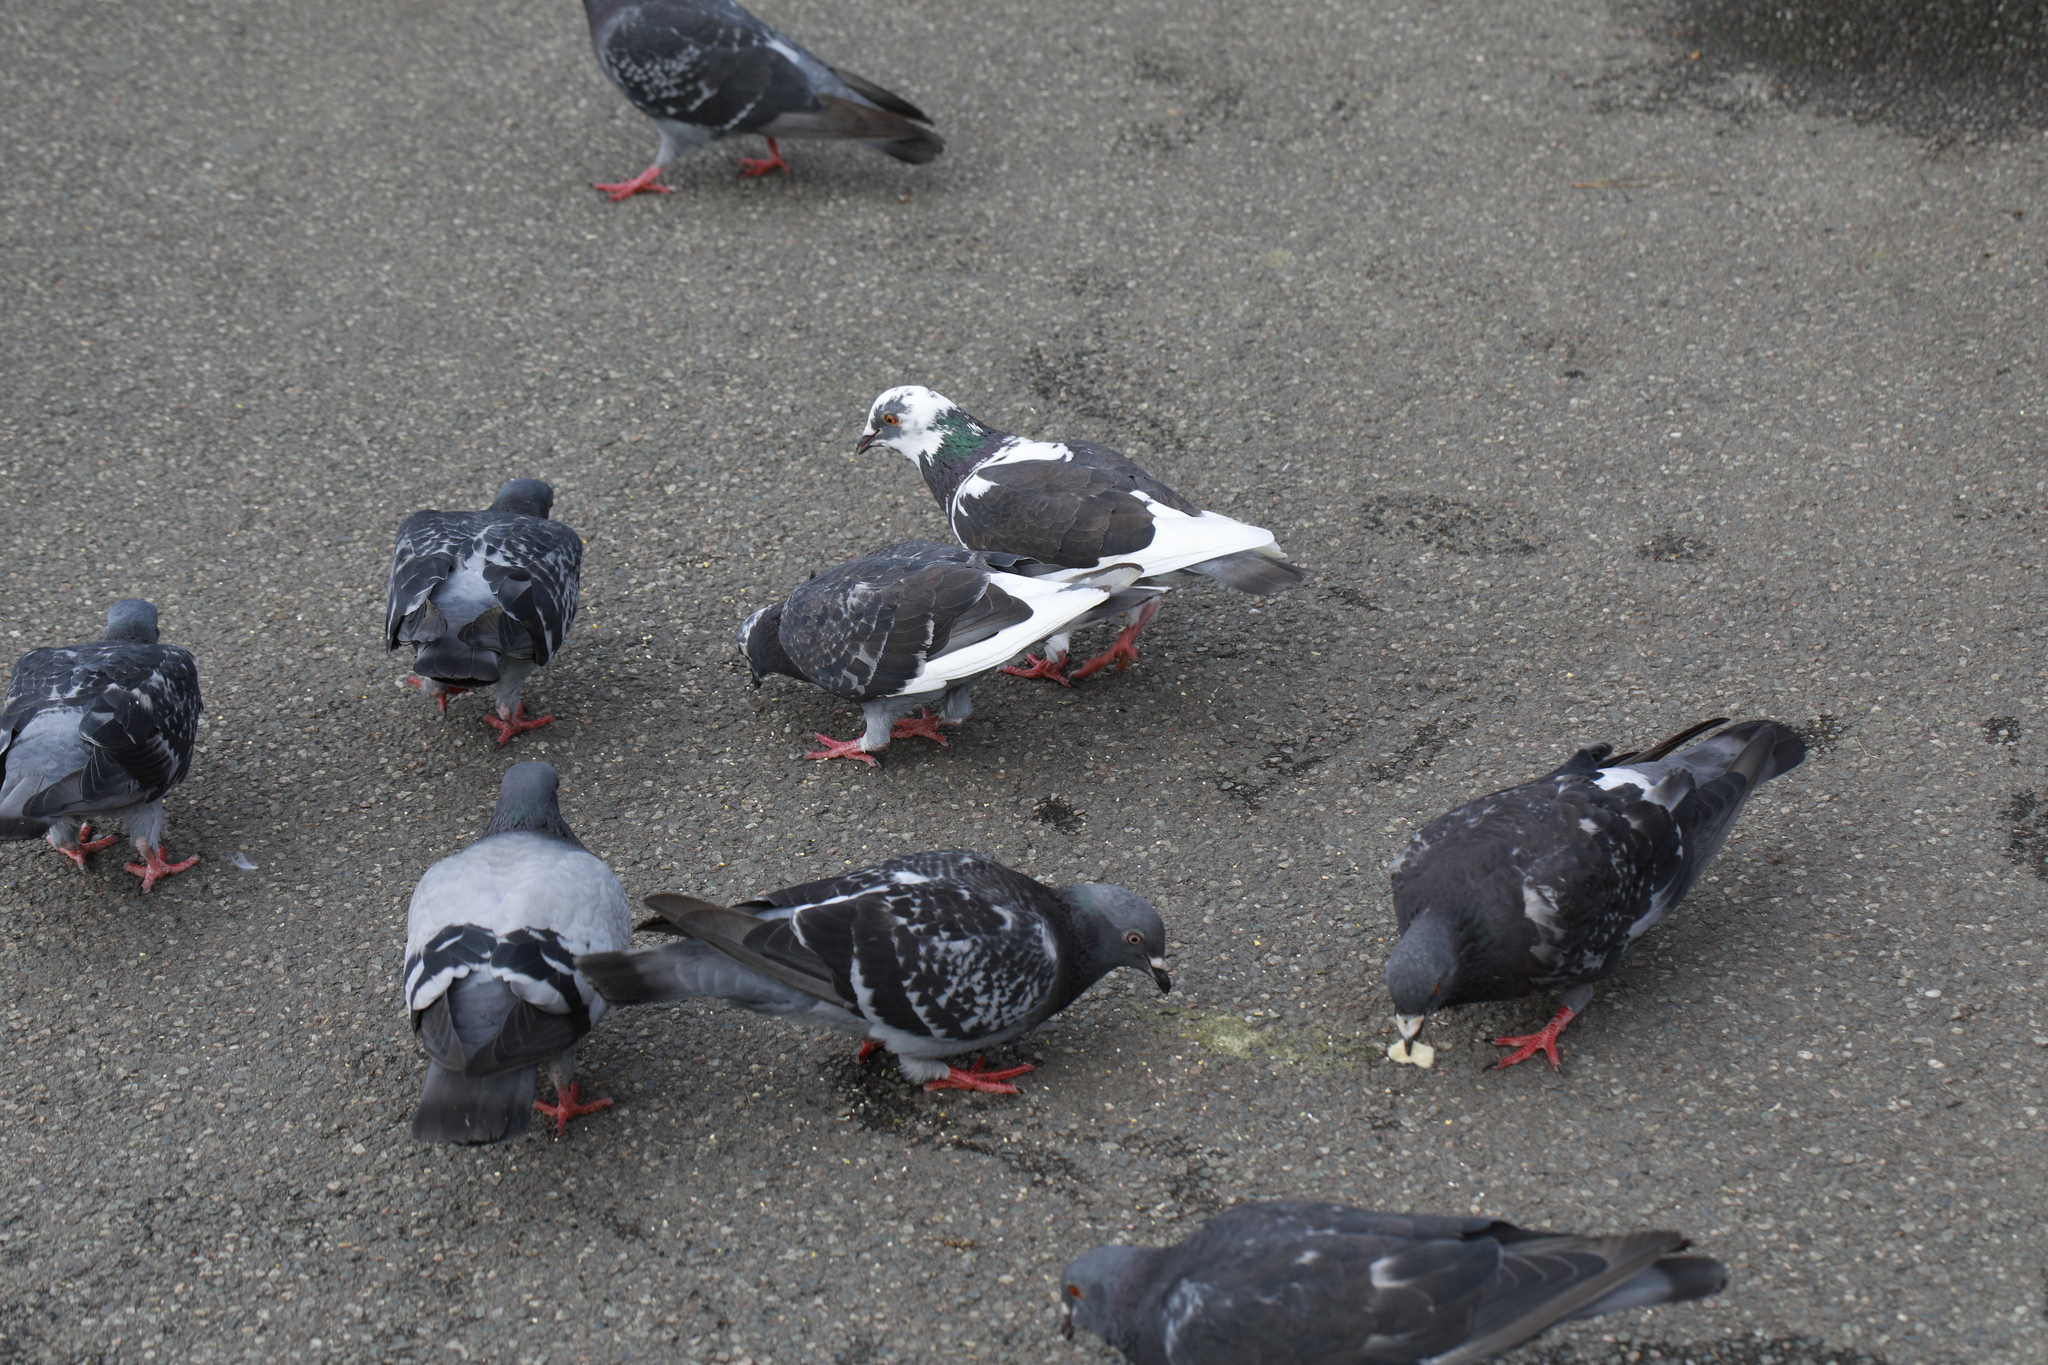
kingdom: Animalia
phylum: Chordata
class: Aves
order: Columbiformes
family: Columbidae
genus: Columba
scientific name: Columba livia
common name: Rock pigeon
